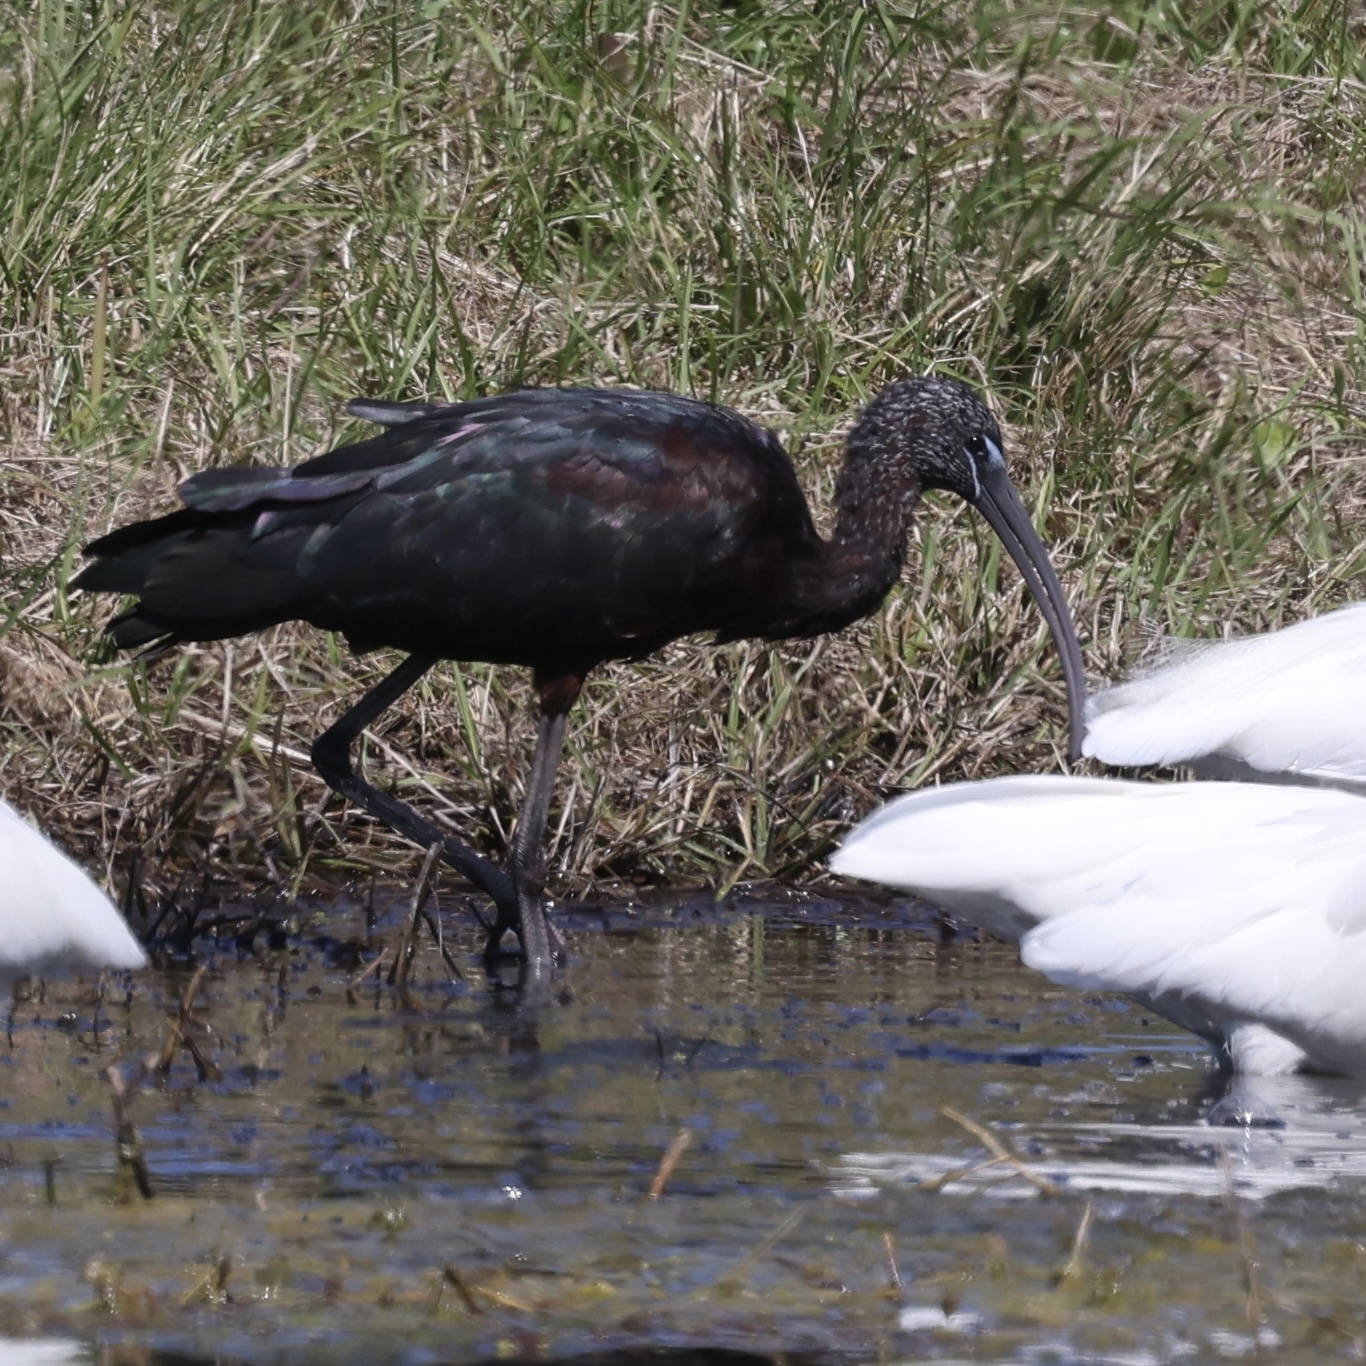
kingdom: Animalia
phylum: Chordata
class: Aves
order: Pelecaniformes
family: Threskiornithidae
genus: Plegadis
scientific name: Plegadis falcinellus
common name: Glossy ibis
